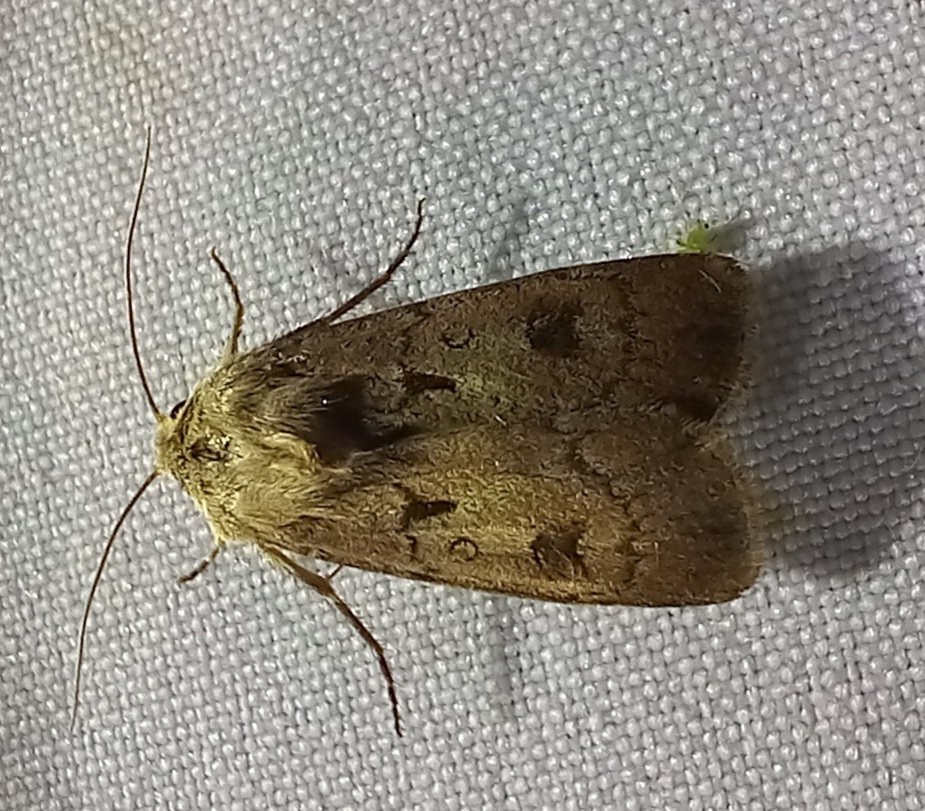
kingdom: Animalia
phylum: Arthropoda
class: Insecta
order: Lepidoptera
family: Noctuidae
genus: Agrotis
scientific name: Agrotis exclamationis
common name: Heart and dart
